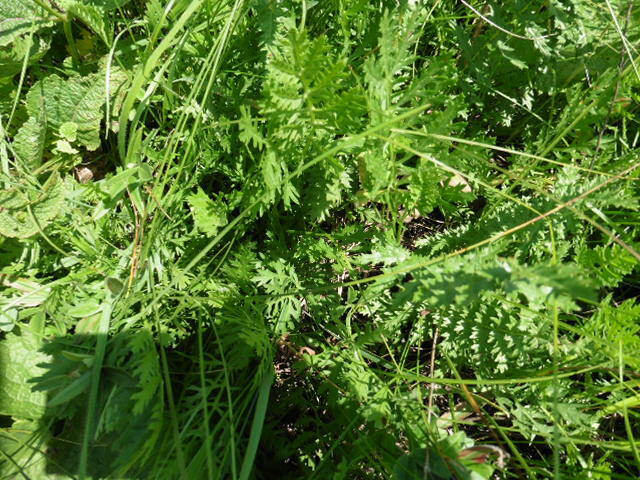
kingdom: Plantae
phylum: Tracheophyta
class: Magnoliopsida
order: Asterales
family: Asteraceae
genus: Artemisia
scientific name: Artemisia latifolia
